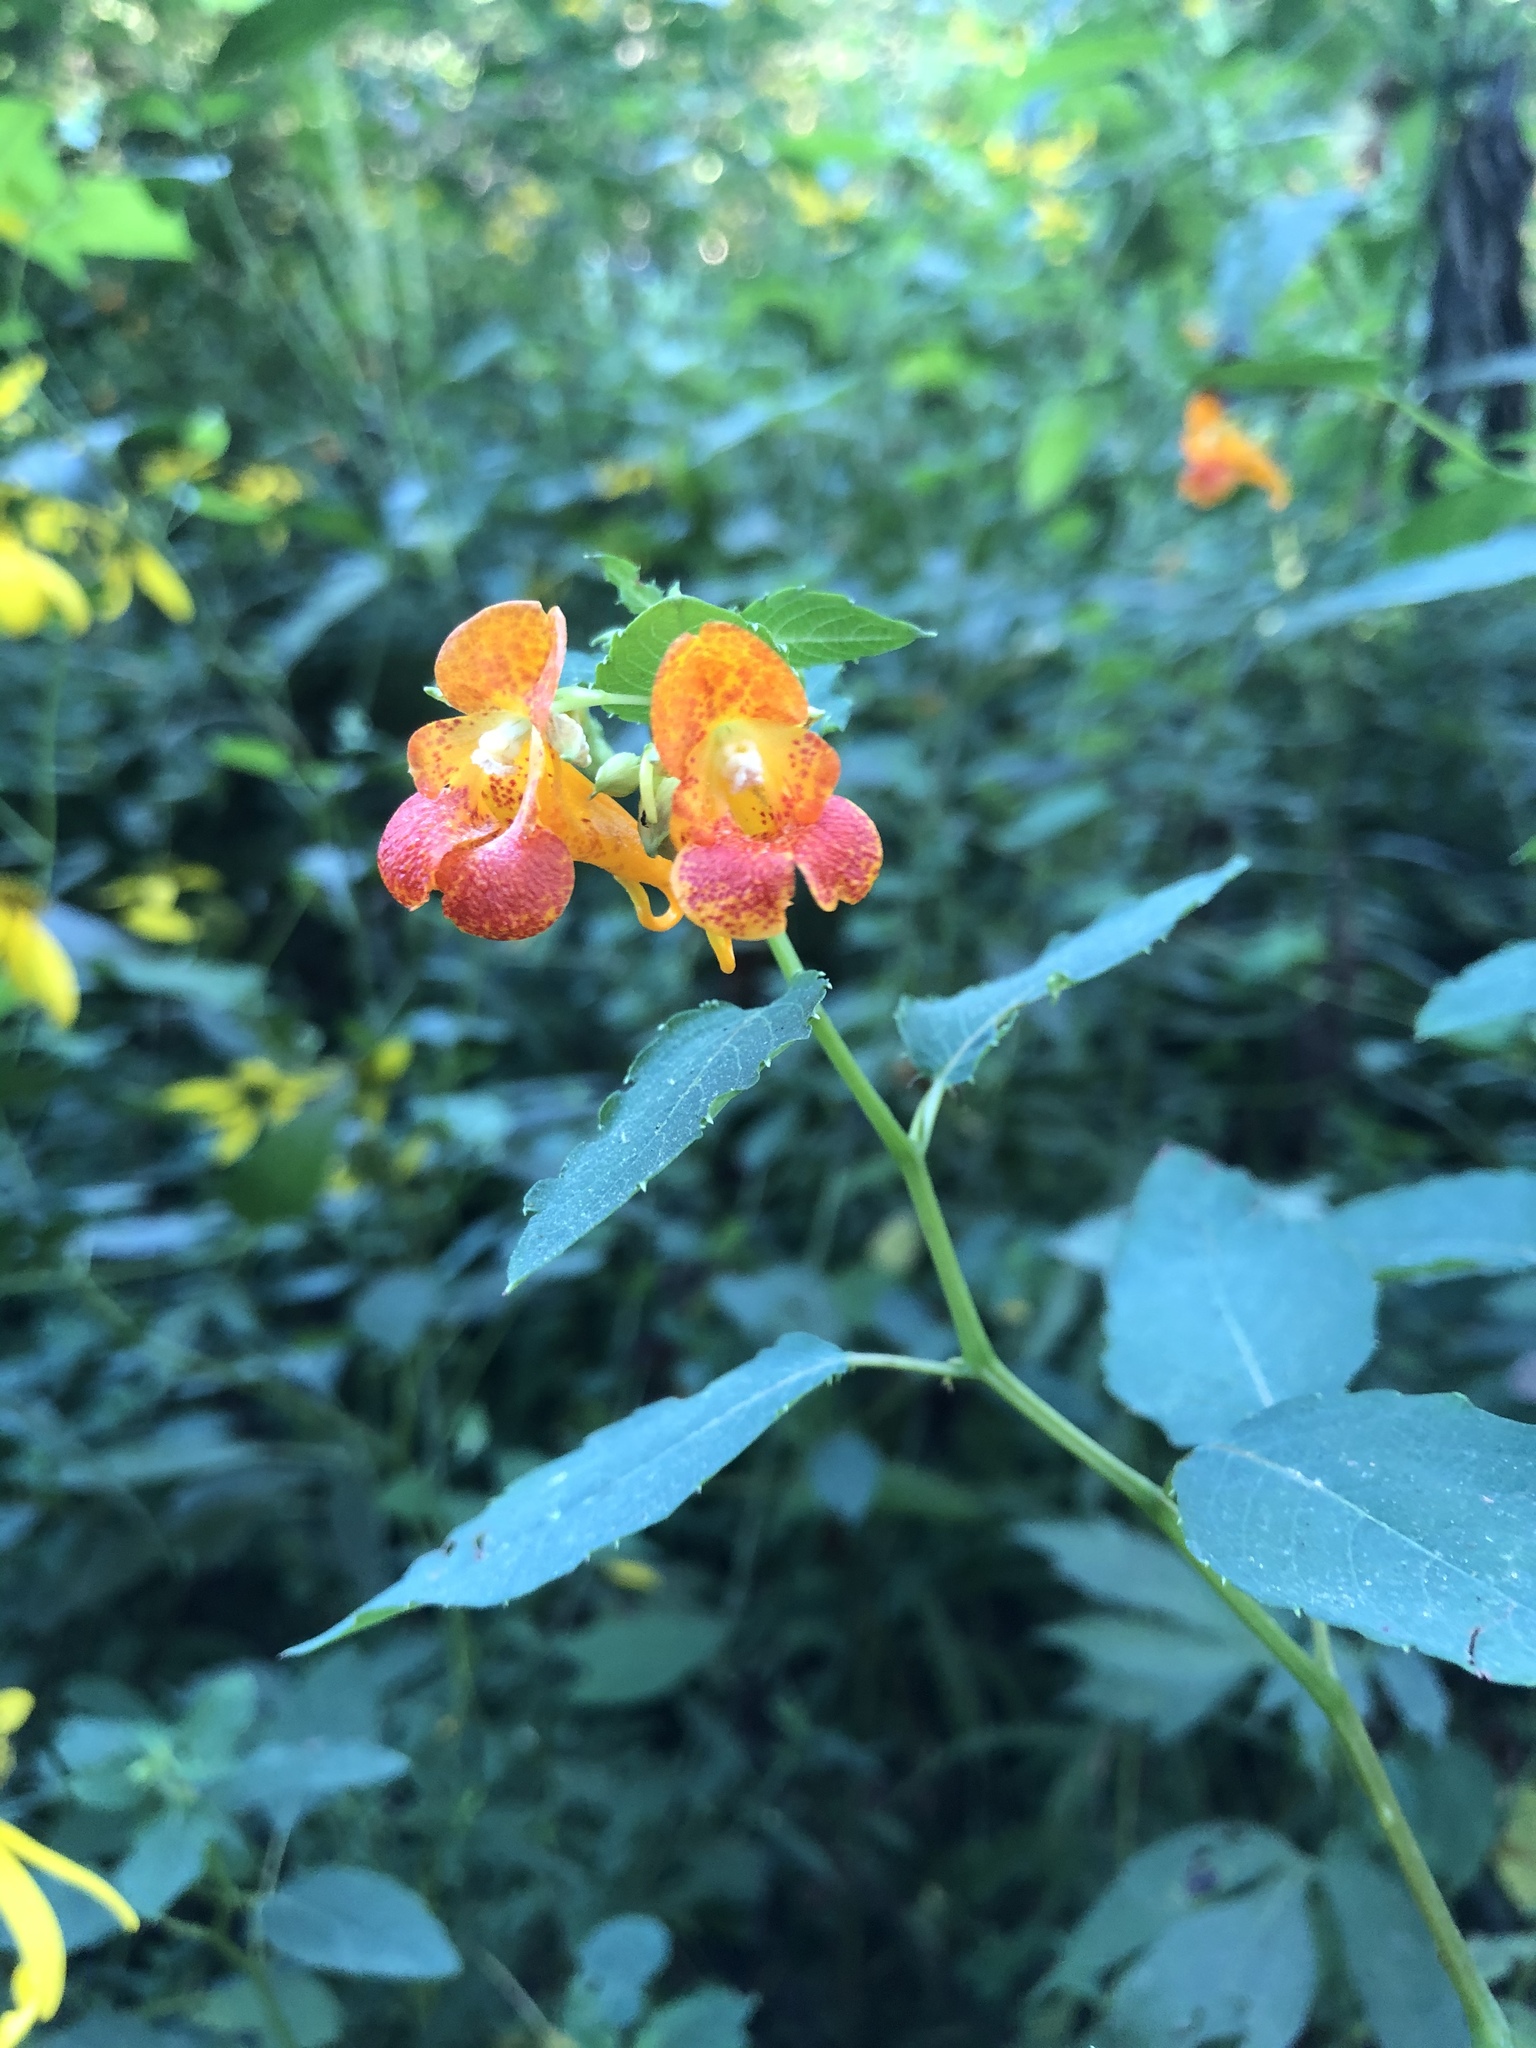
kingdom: Plantae
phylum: Tracheophyta
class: Magnoliopsida
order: Ericales
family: Balsaminaceae
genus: Impatiens
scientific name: Impatiens capensis
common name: Orange balsam
